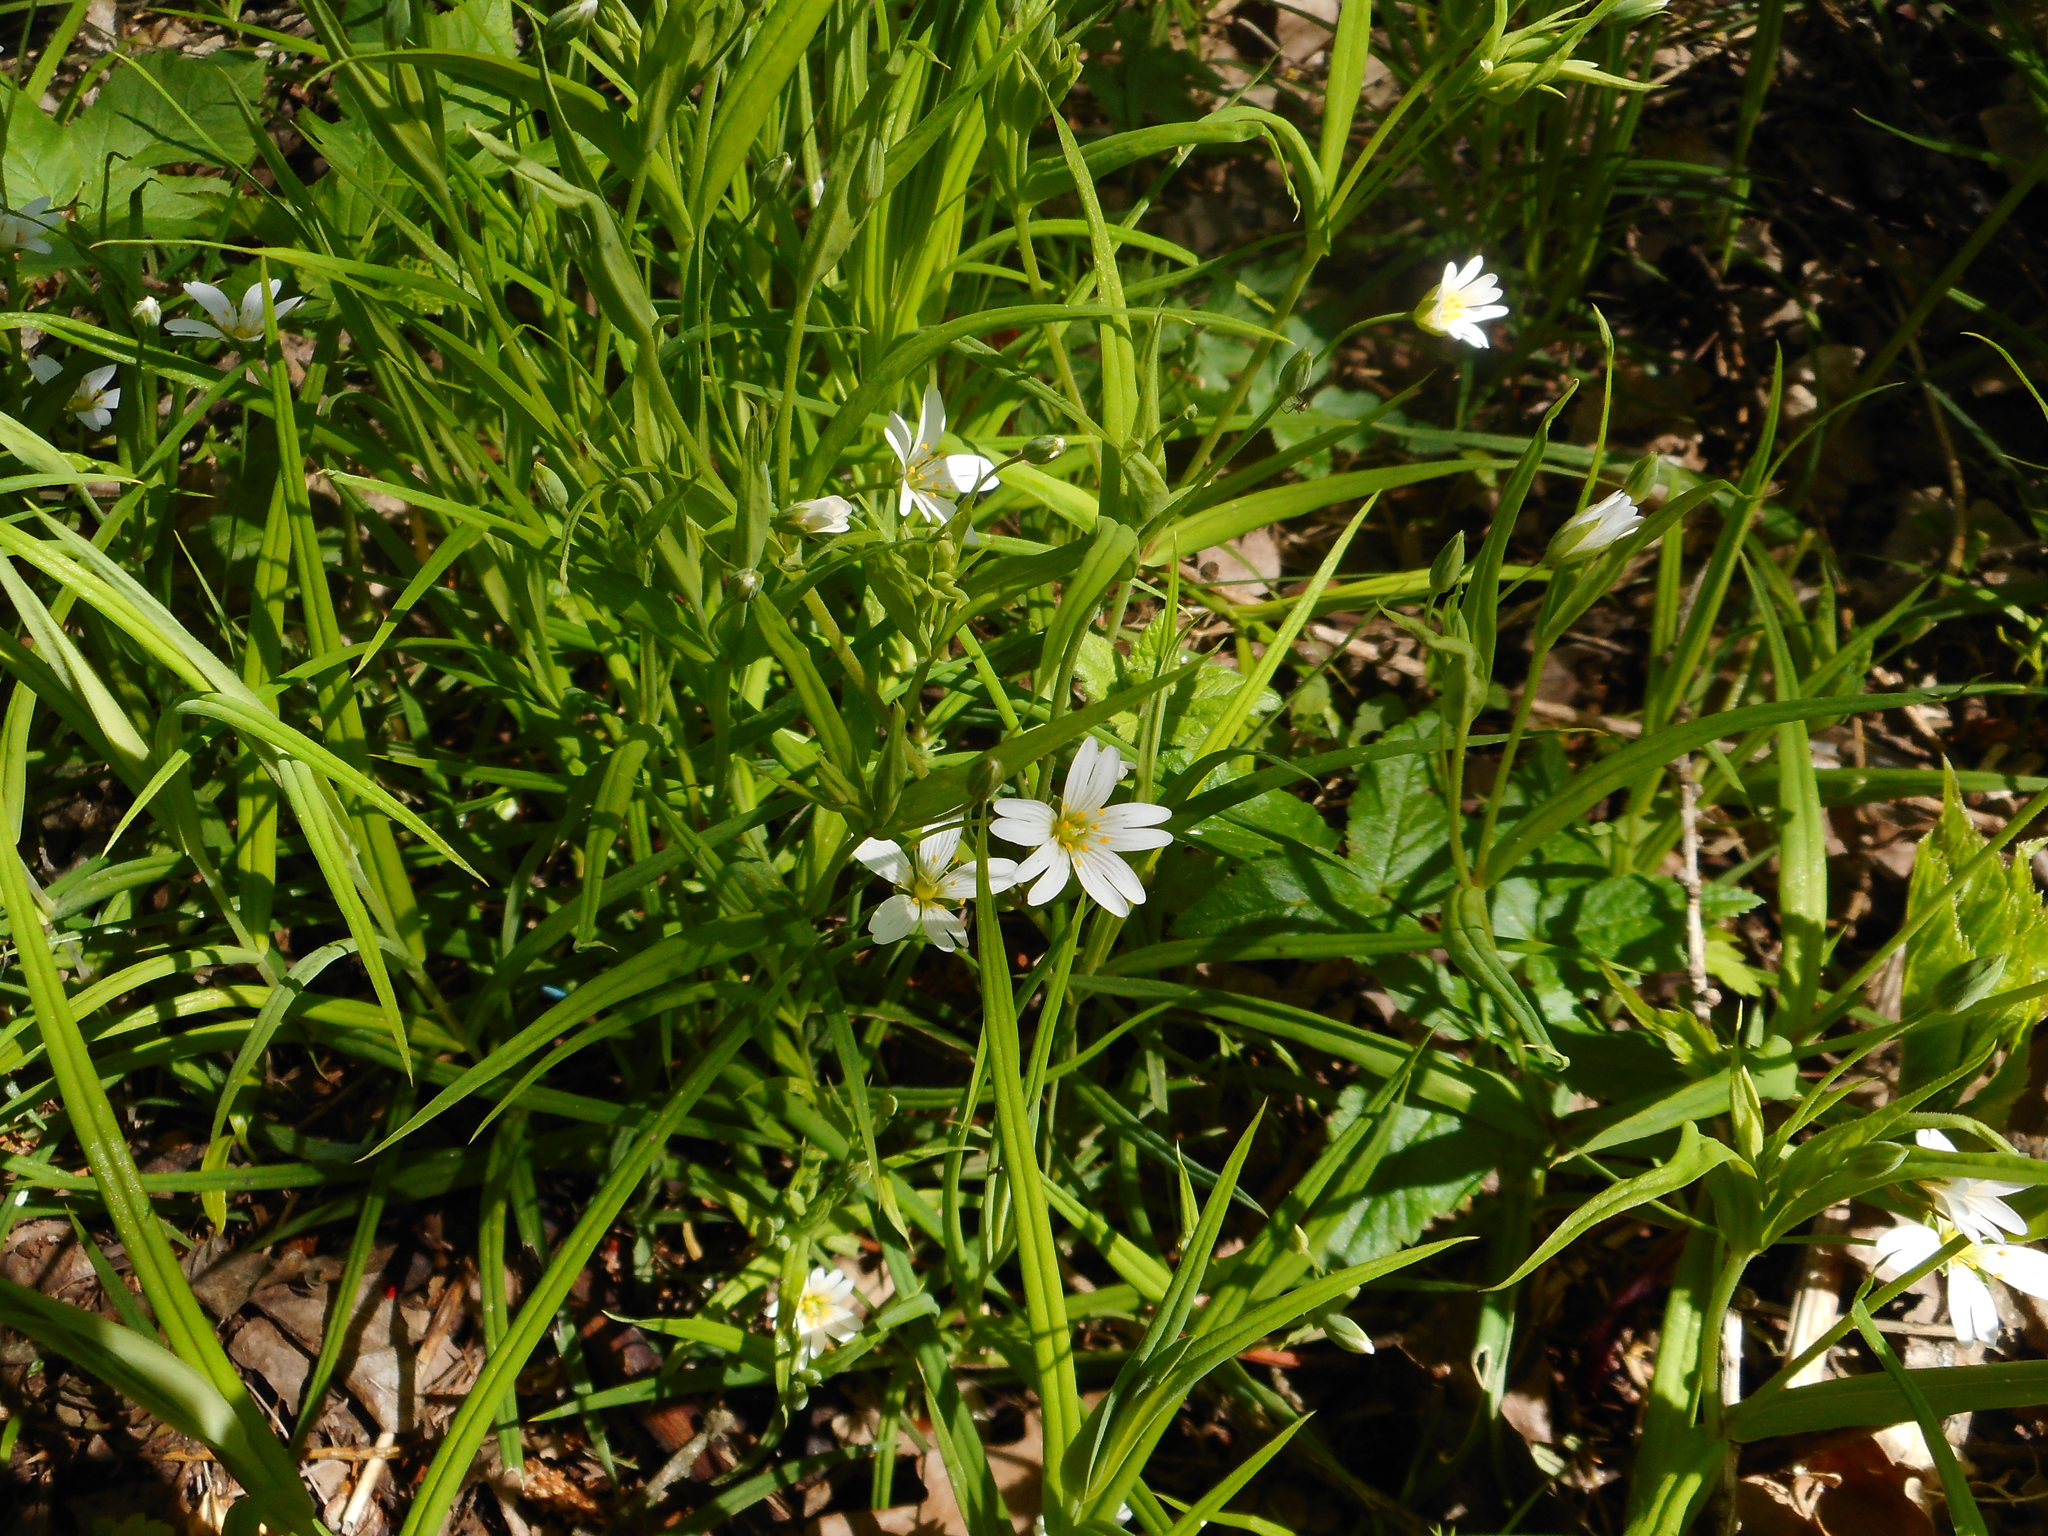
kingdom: Plantae
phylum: Tracheophyta
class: Magnoliopsida
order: Caryophyllales
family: Caryophyllaceae
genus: Rabelera
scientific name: Rabelera holostea
